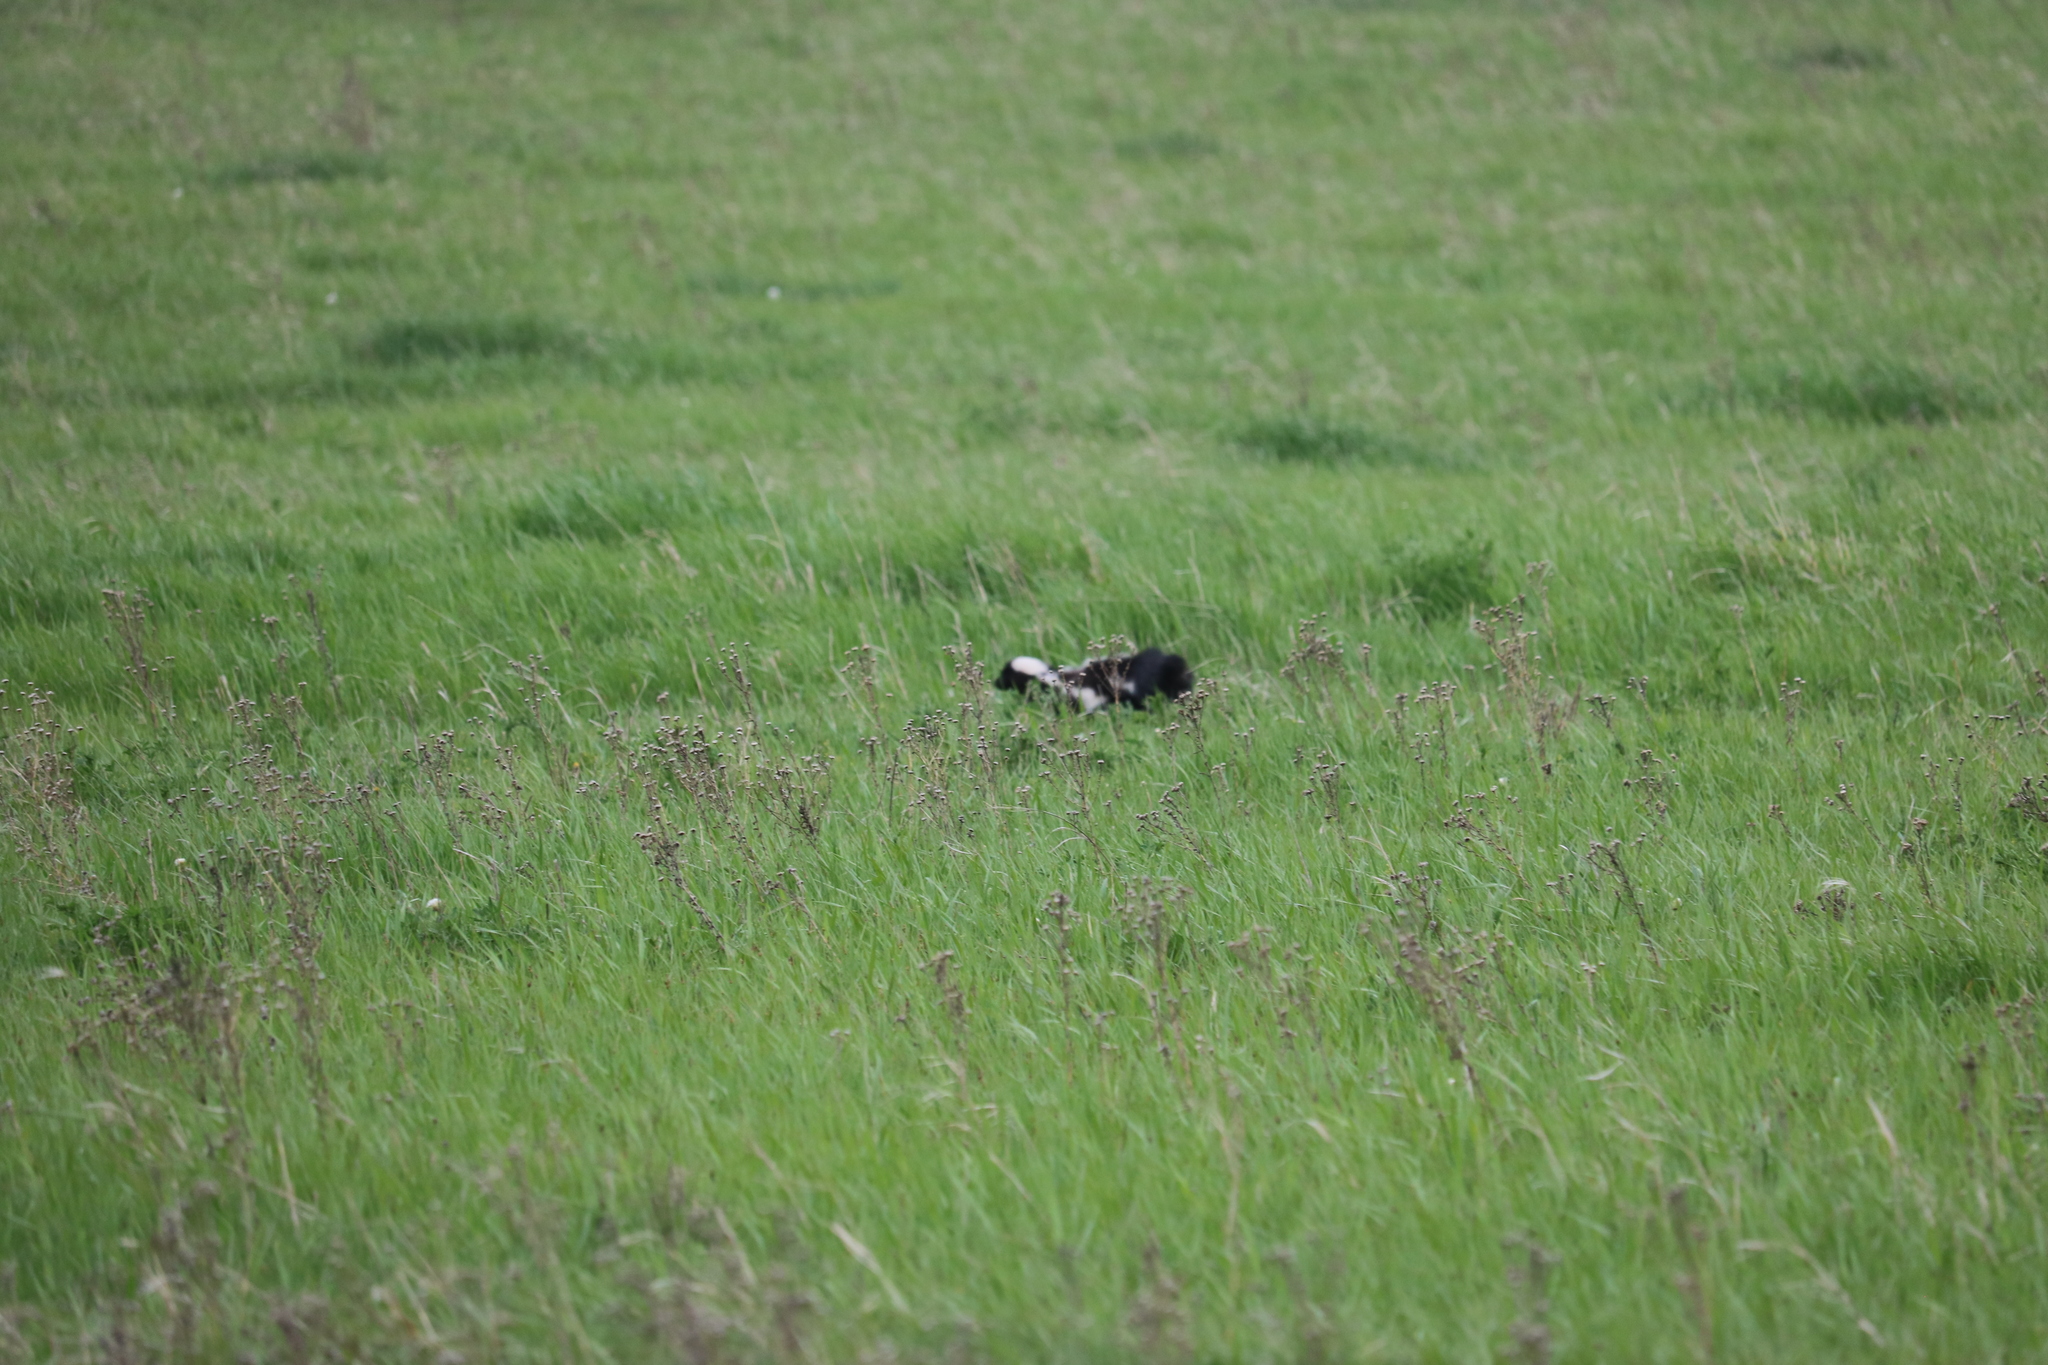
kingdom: Animalia
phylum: Chordata
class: Mammalia
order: Carnivora
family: Mephitidae
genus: Mephitis
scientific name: Mephitis mephitis
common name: Striped skunk
